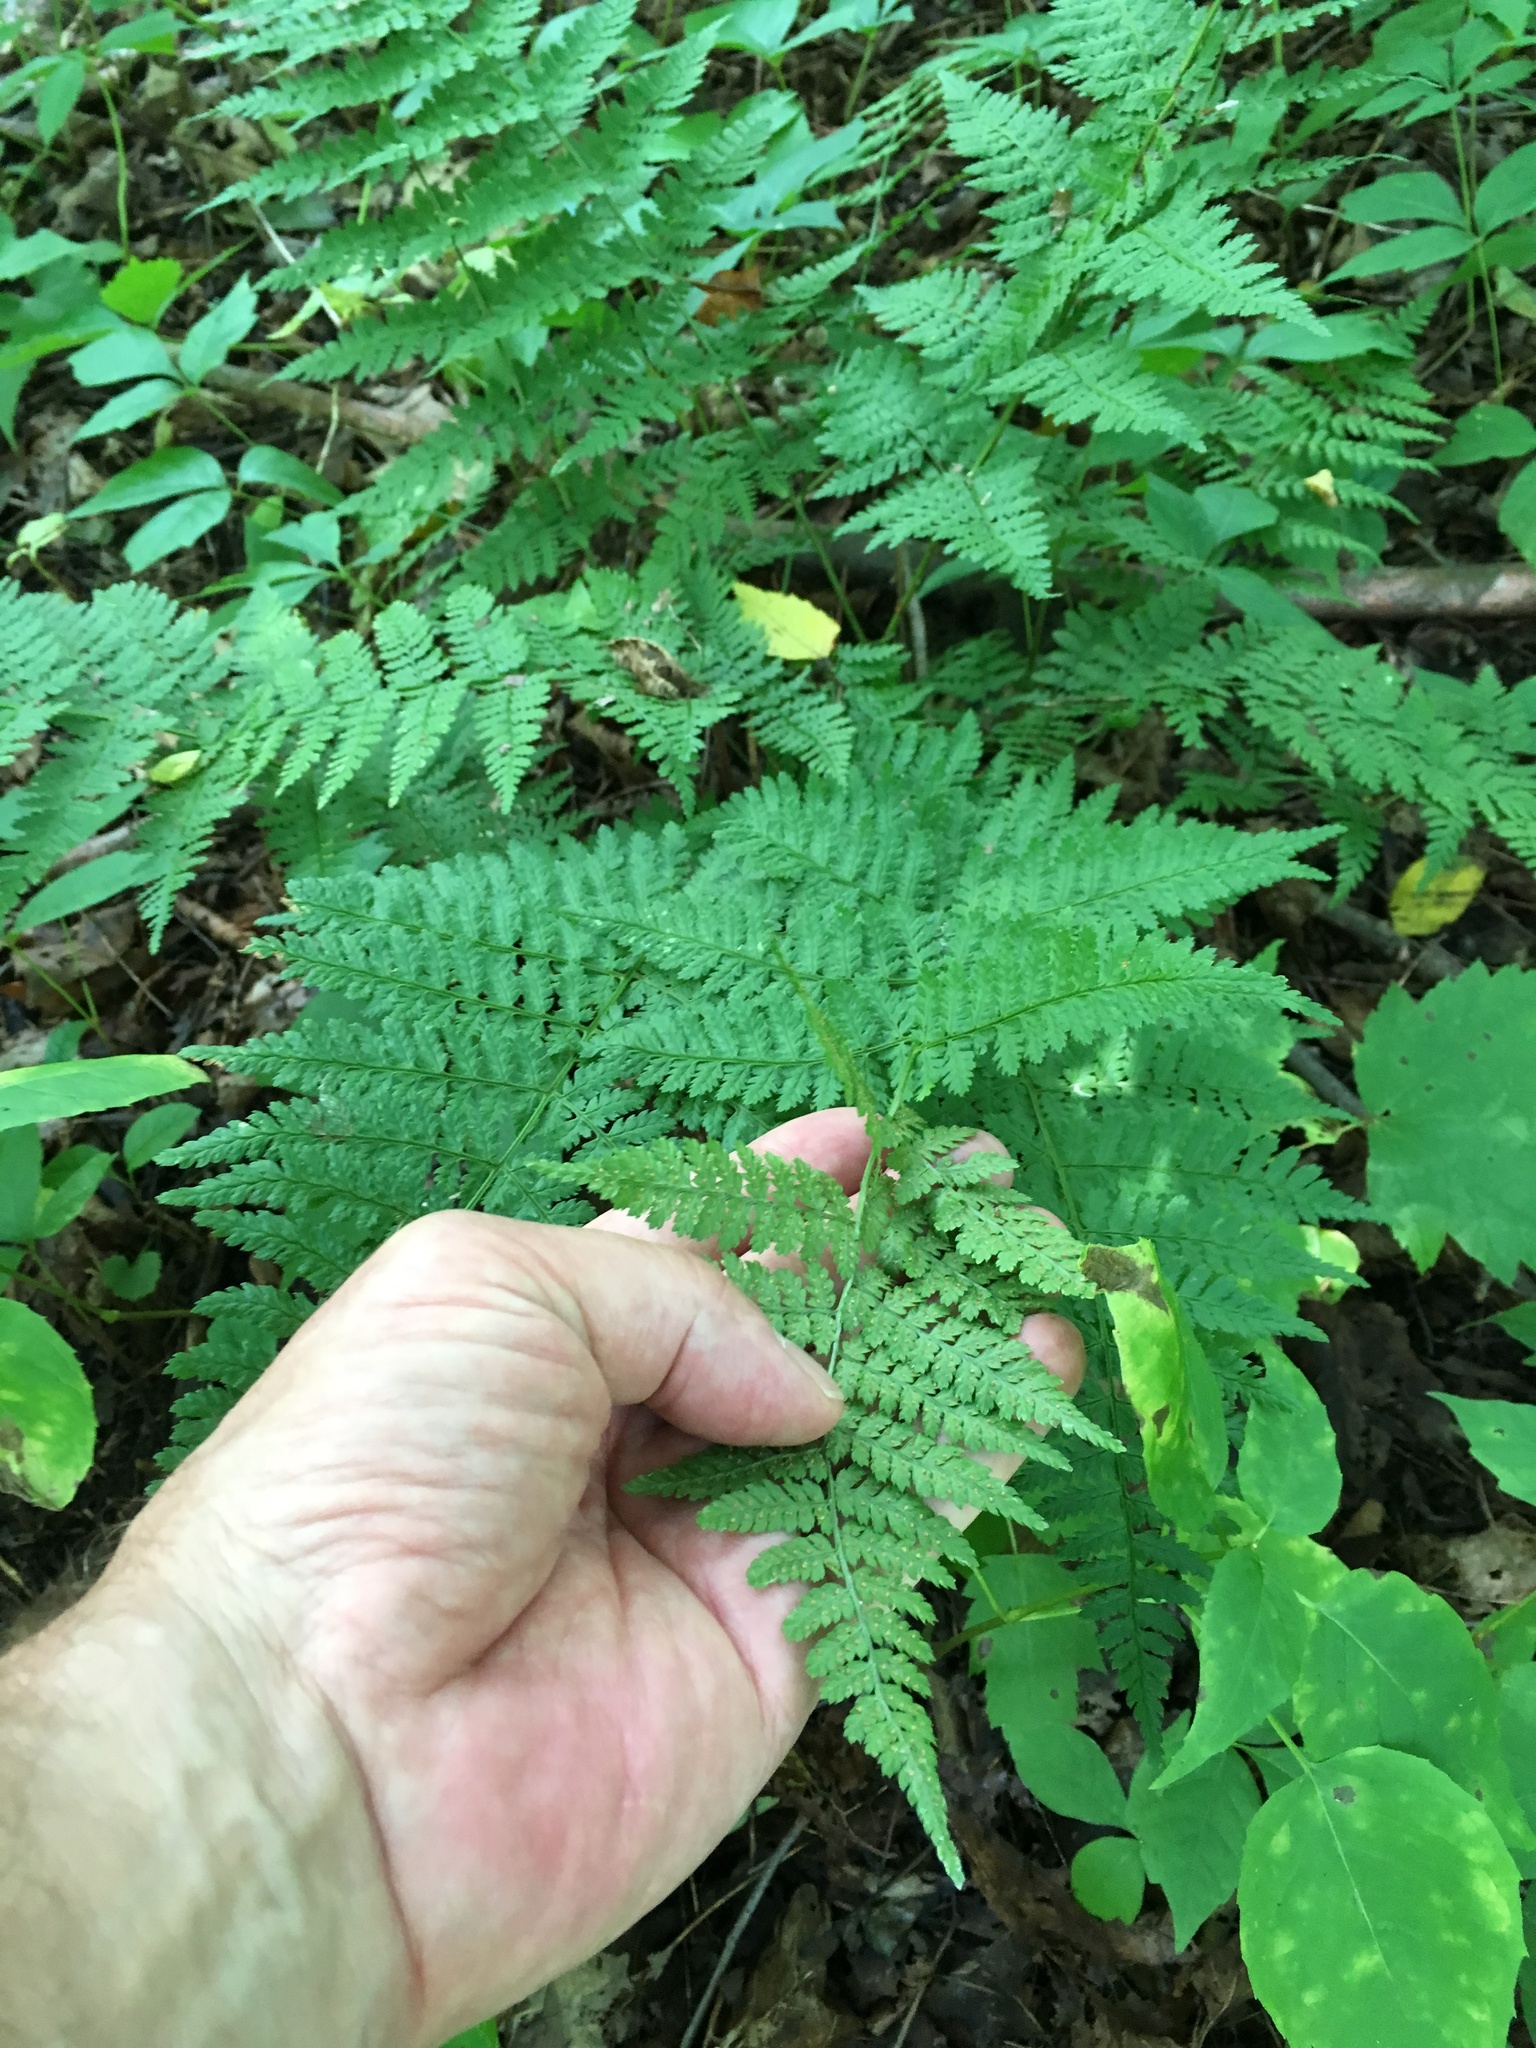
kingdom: Plantae
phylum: Tracheophyta
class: Polypodiopsida
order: Polypodiales
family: Dryopteridaceae
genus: Dryopteris
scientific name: Dryopteris intermedia
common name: Evergreen wood fern
